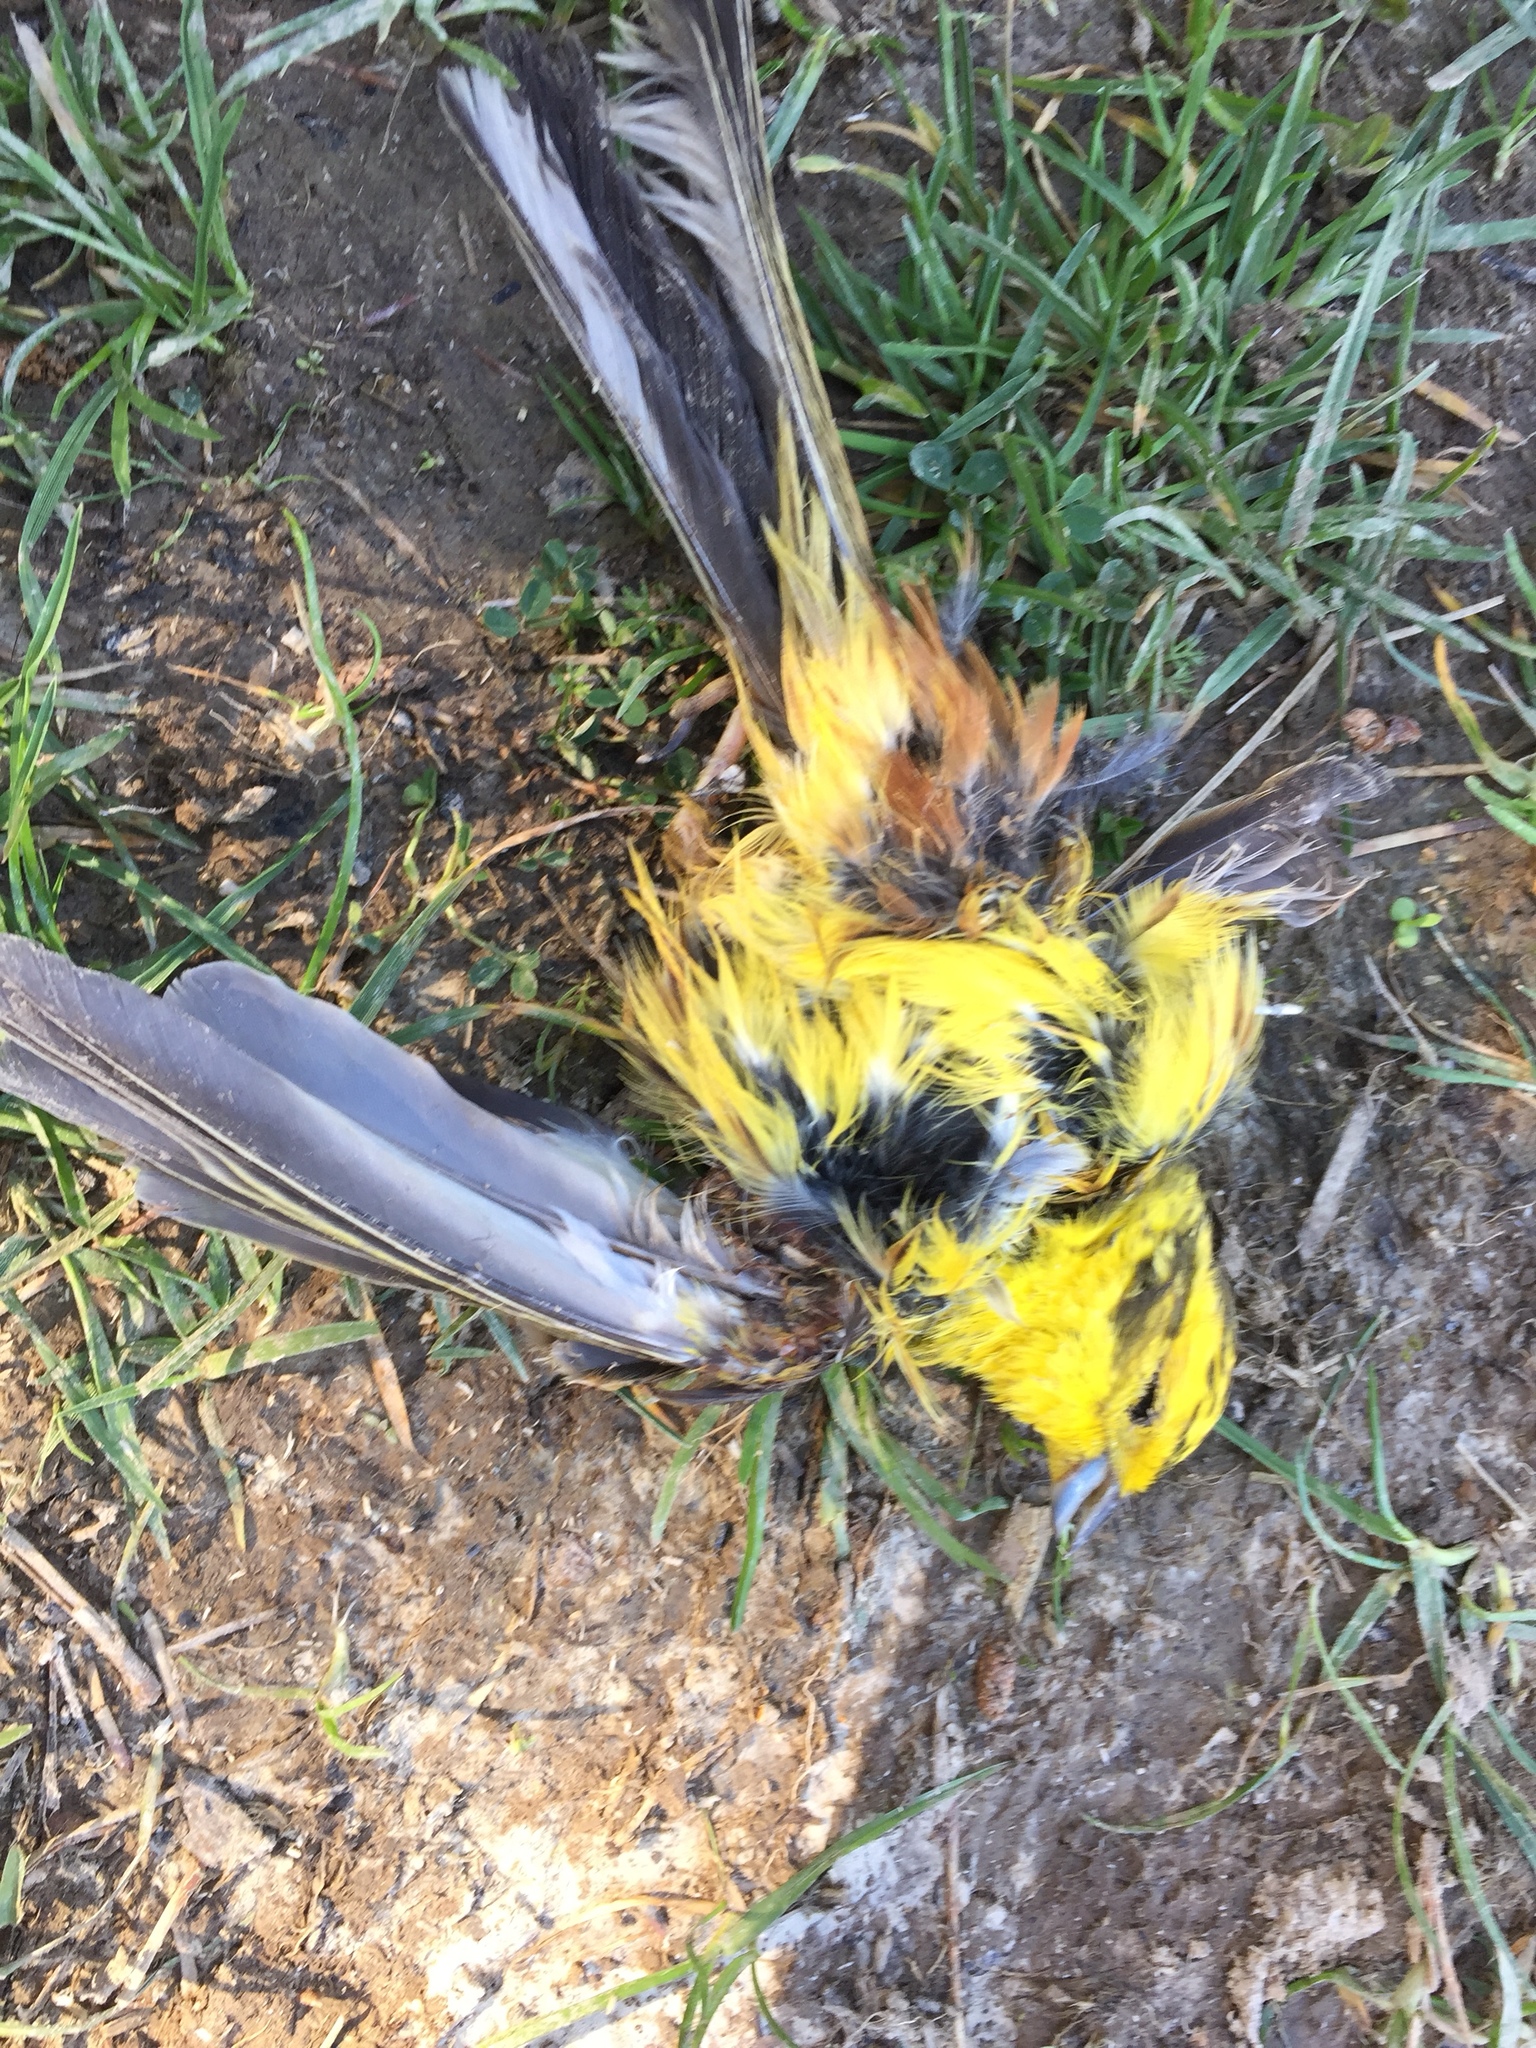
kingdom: Animalia
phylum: Chordata
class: Aves
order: Passeriformes
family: Emberizidae
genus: Emberiza
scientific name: Emberiza citrinella
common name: Yellowhammer
